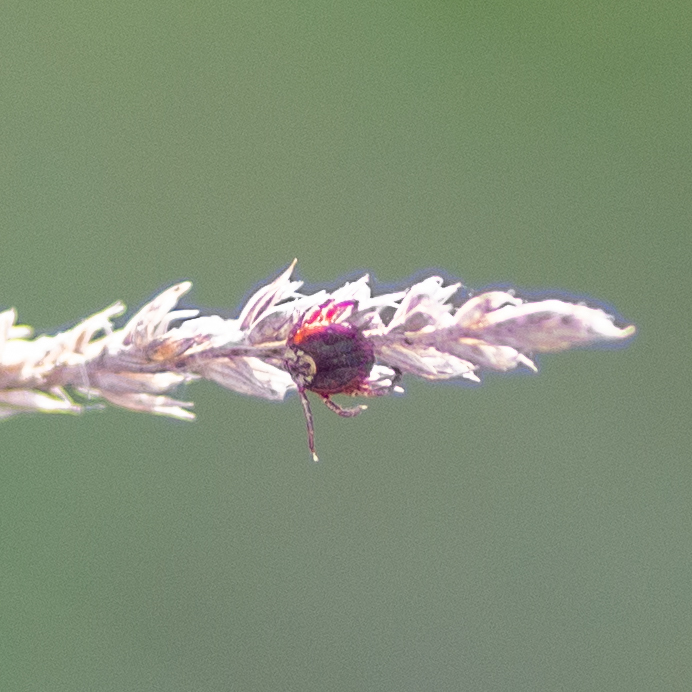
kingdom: Animalia
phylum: Arthropoda
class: Arachnida
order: Ixodida
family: Ixodidae
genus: Dermacentor
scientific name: Dermacentor
